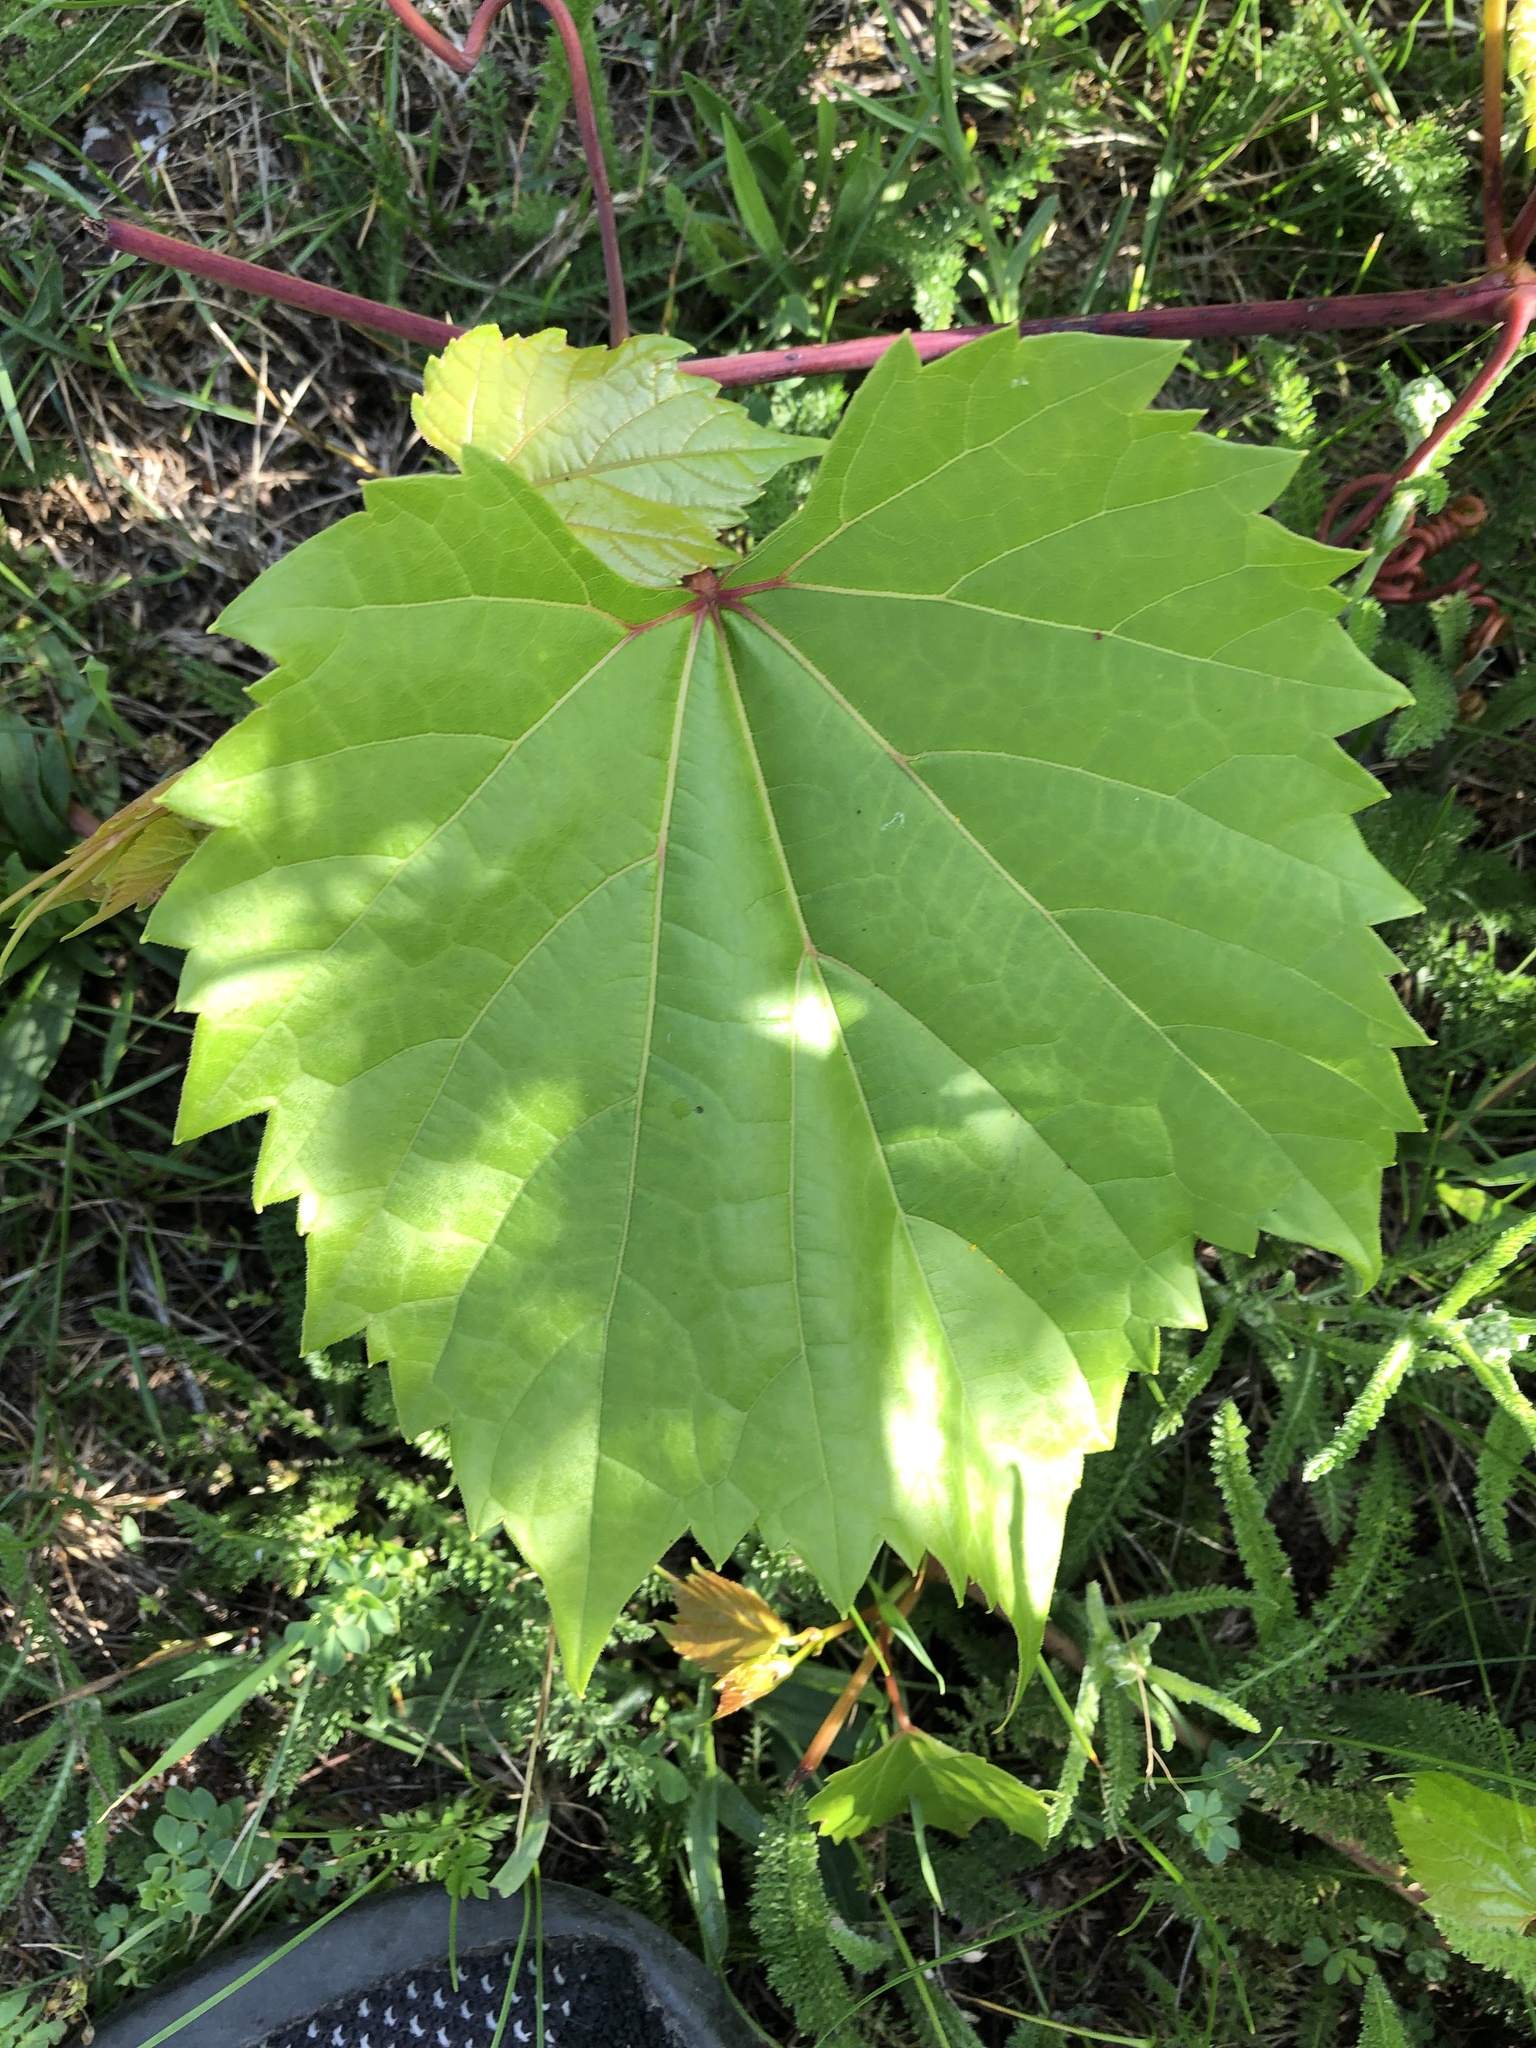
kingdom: Plantae
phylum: Tracheophyta
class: Magnoliopsida
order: Vitales
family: Vitaceae
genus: Vitis
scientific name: Vitis riparia
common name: Frost grape
